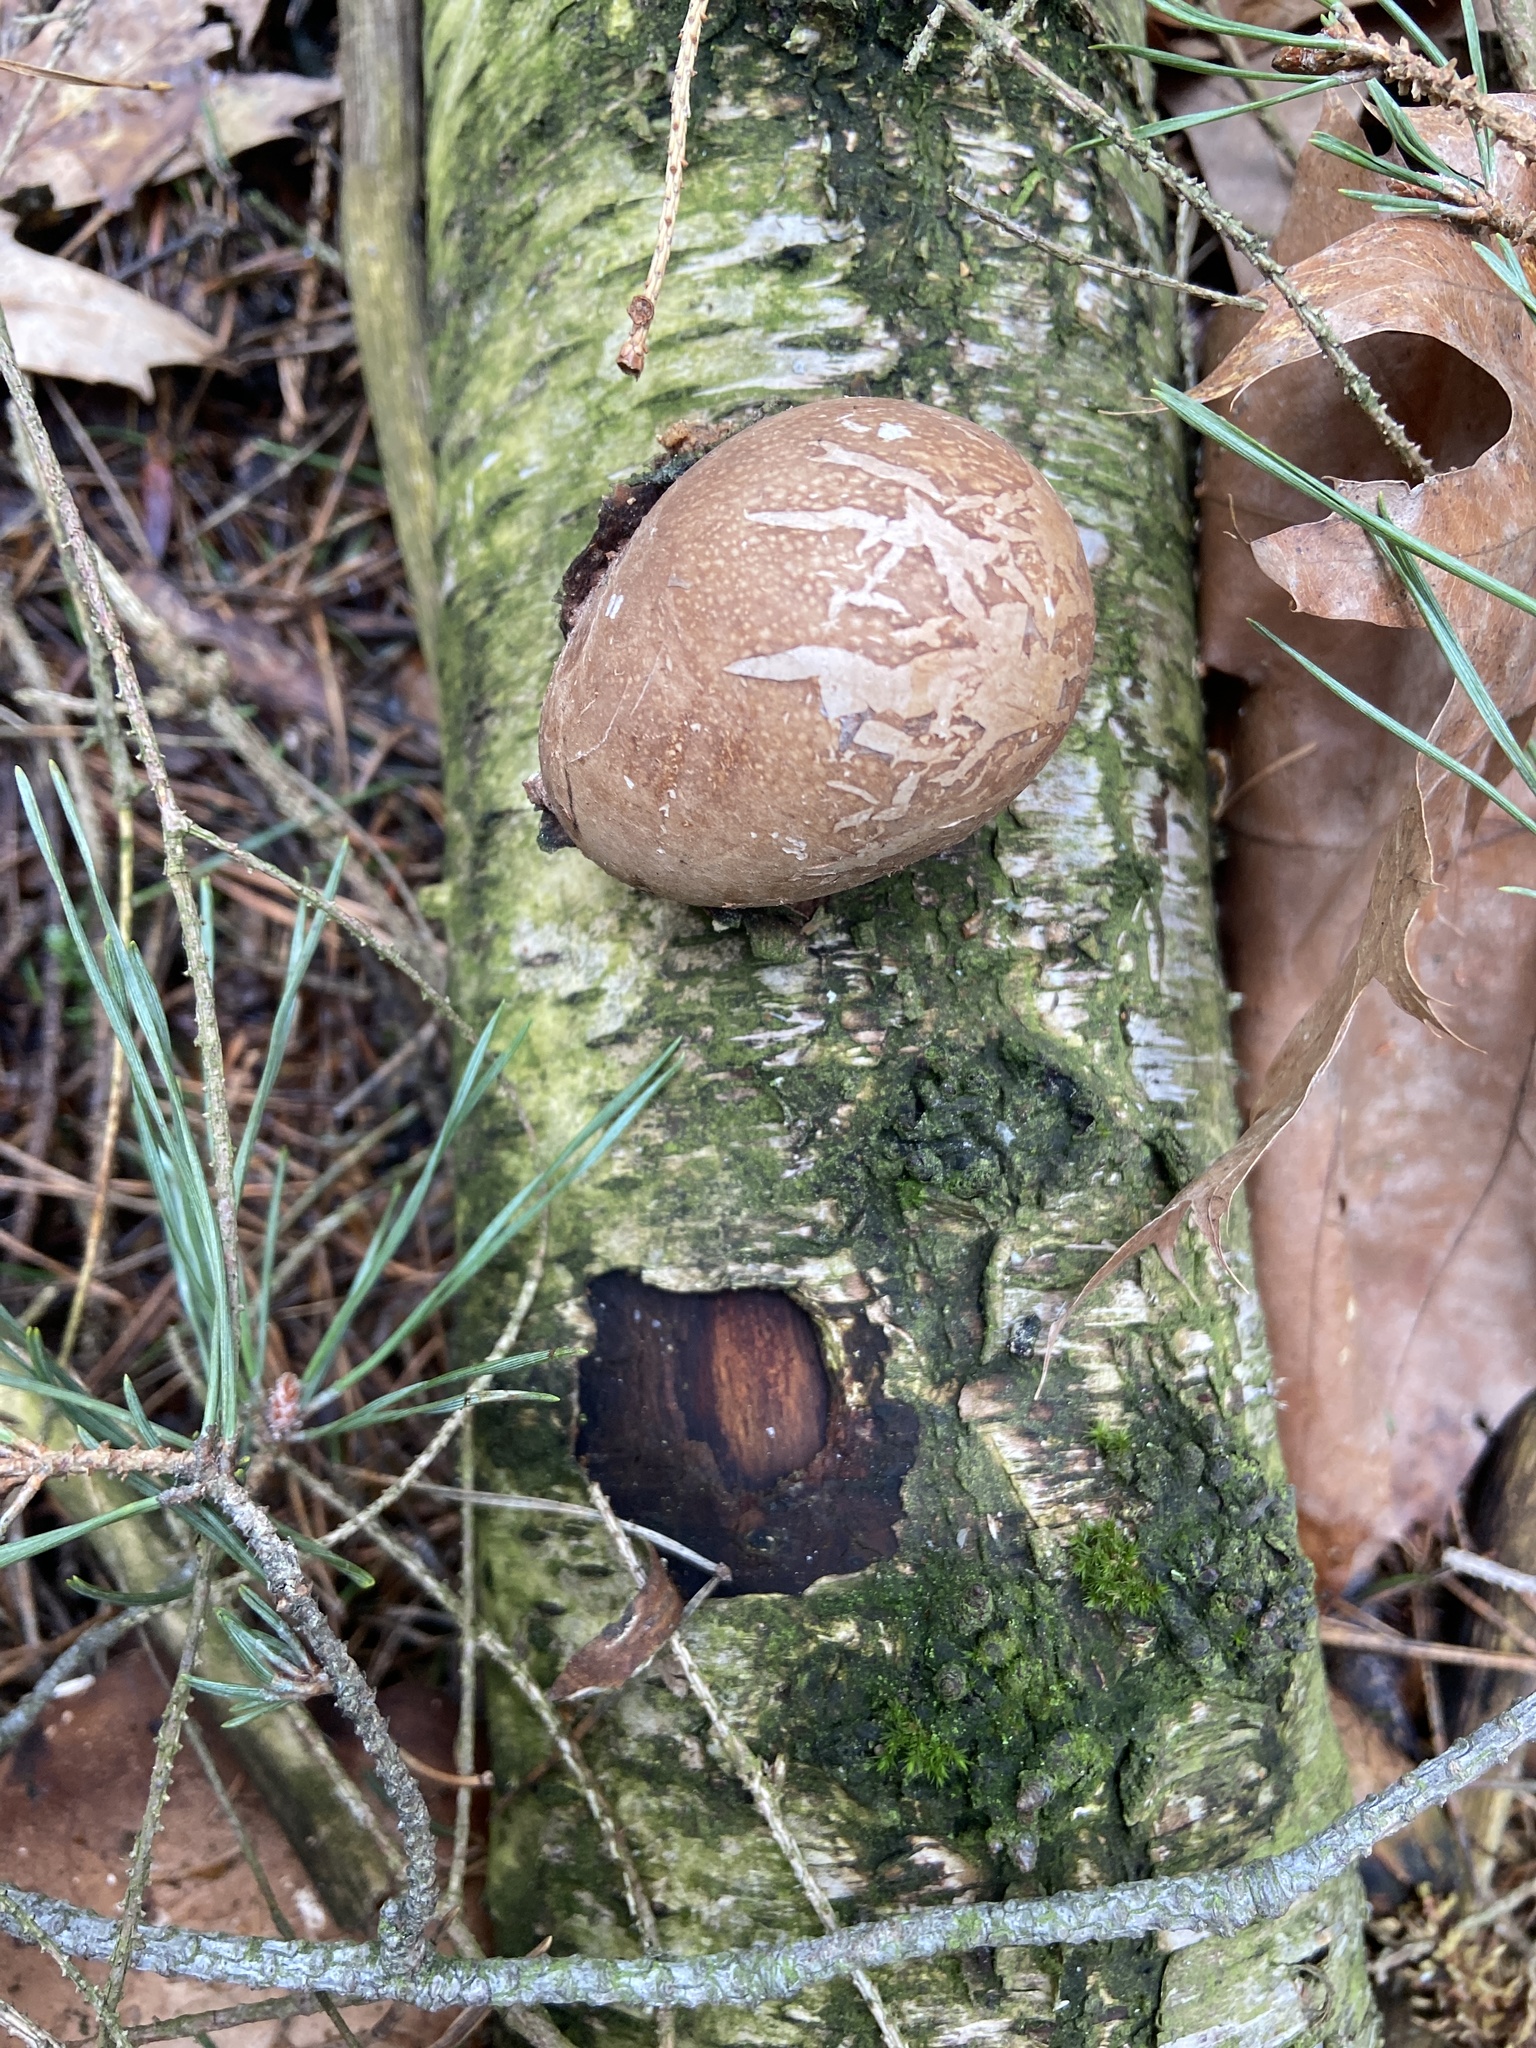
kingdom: Fungi
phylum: Basidiomycota
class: Agaricomycetes
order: Polyporales
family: Fomitopsidaceae
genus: Fomitopsis
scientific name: Fomitopsis betulina
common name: Birch polypore
